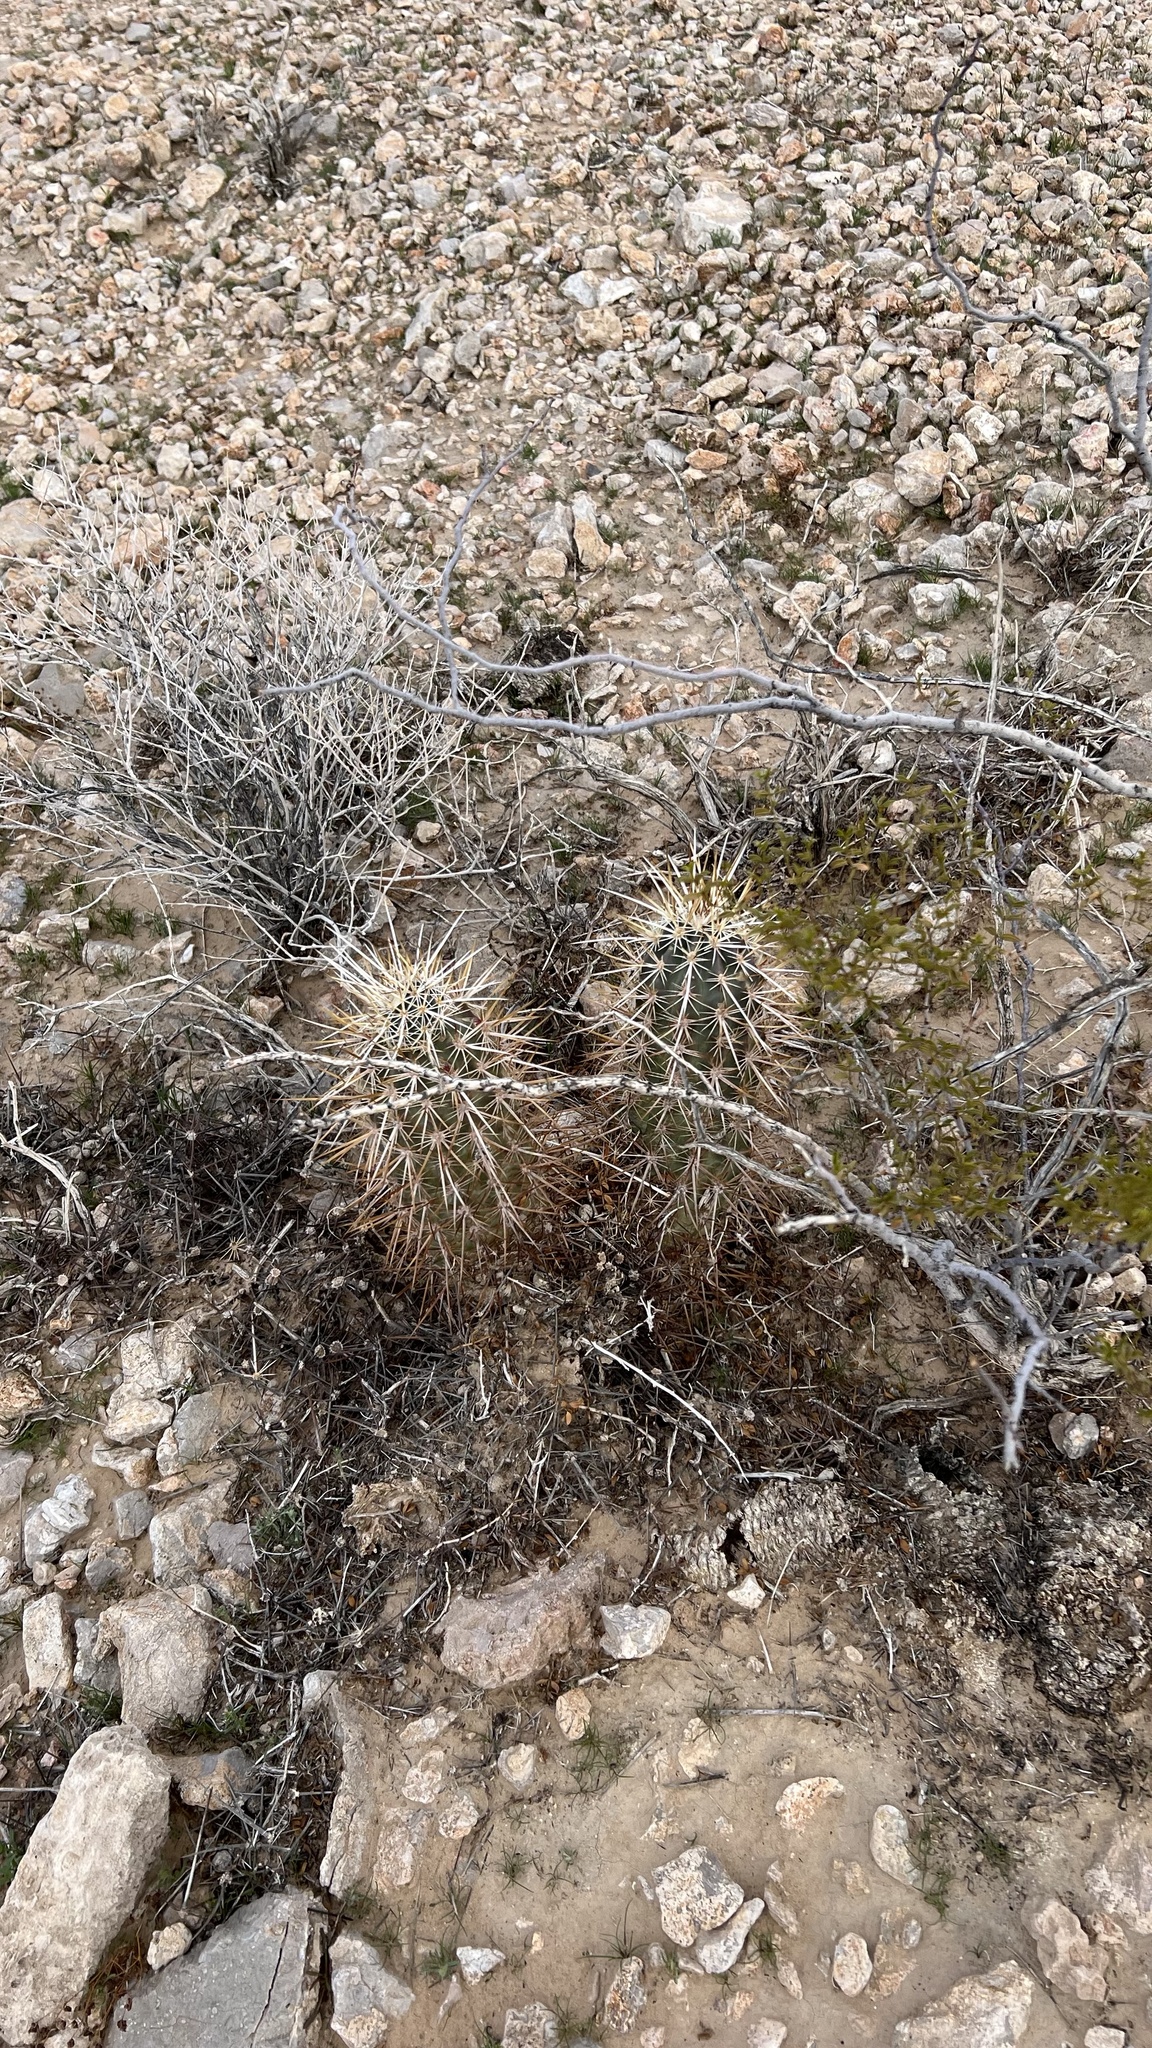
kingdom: Plantae
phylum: Tracheophyta
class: Magnoliopsida
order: Caryophyllales
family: Cactaceae
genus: Echinocereus
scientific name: Echinocereus engelmannii
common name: Engelmann's hedgehog cactus
